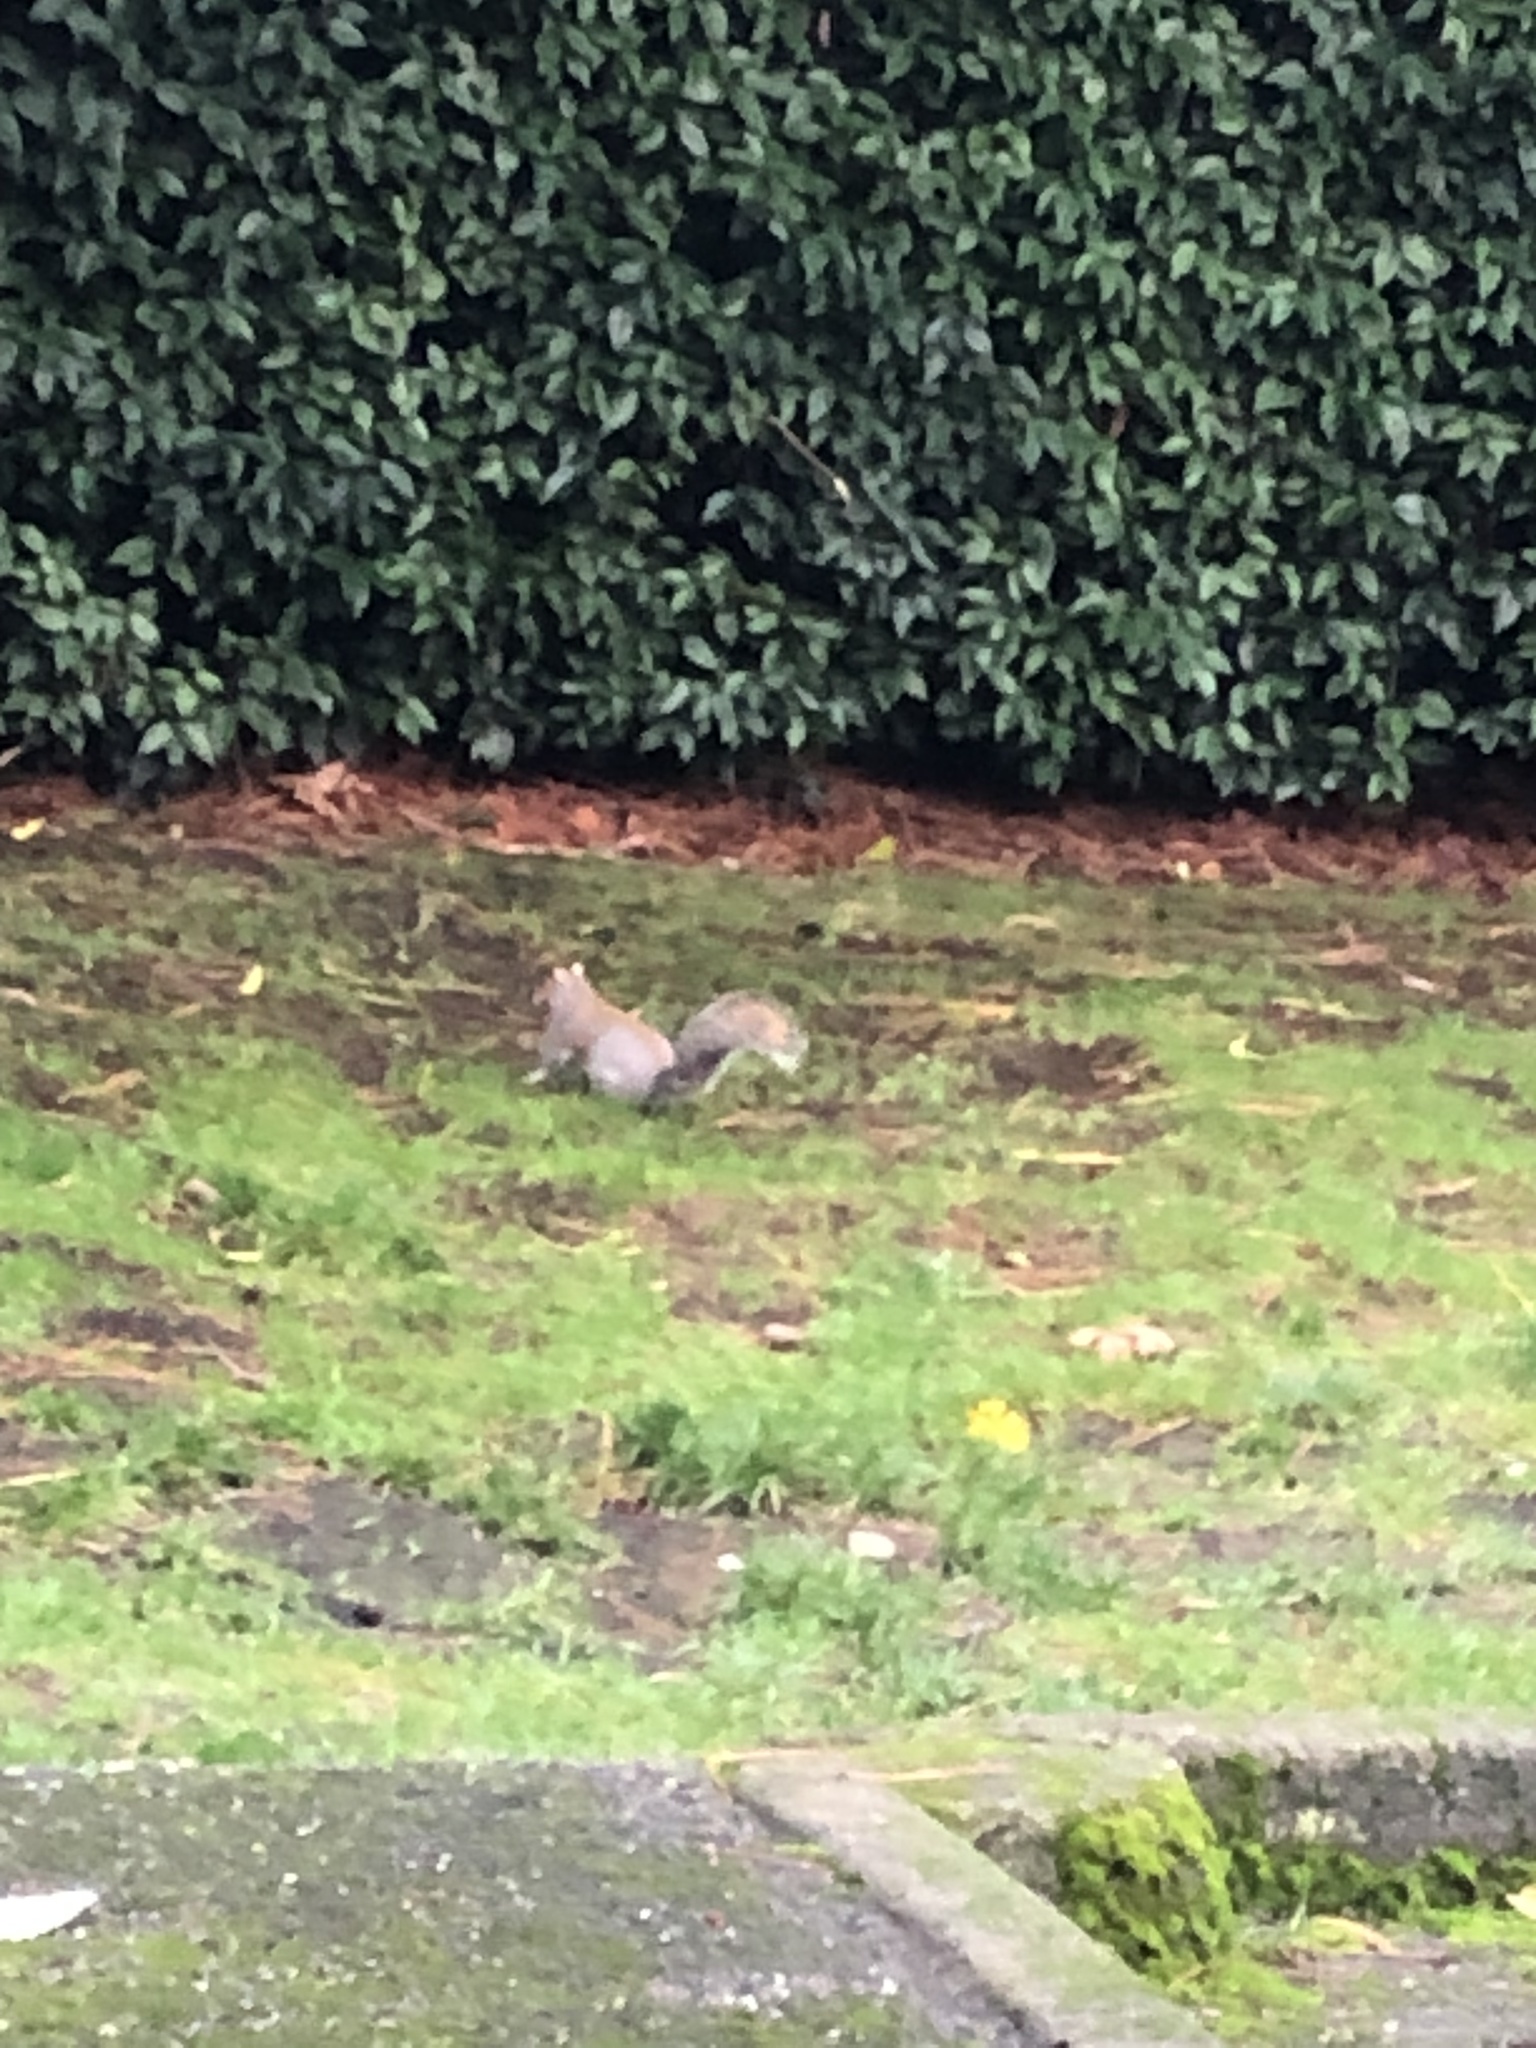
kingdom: Animalia
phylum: Chordata
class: Mammalia
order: Rodentia
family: Sciuridae
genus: Sciurus
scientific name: Sciurus carolinensis
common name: Eastern gray squirrel
